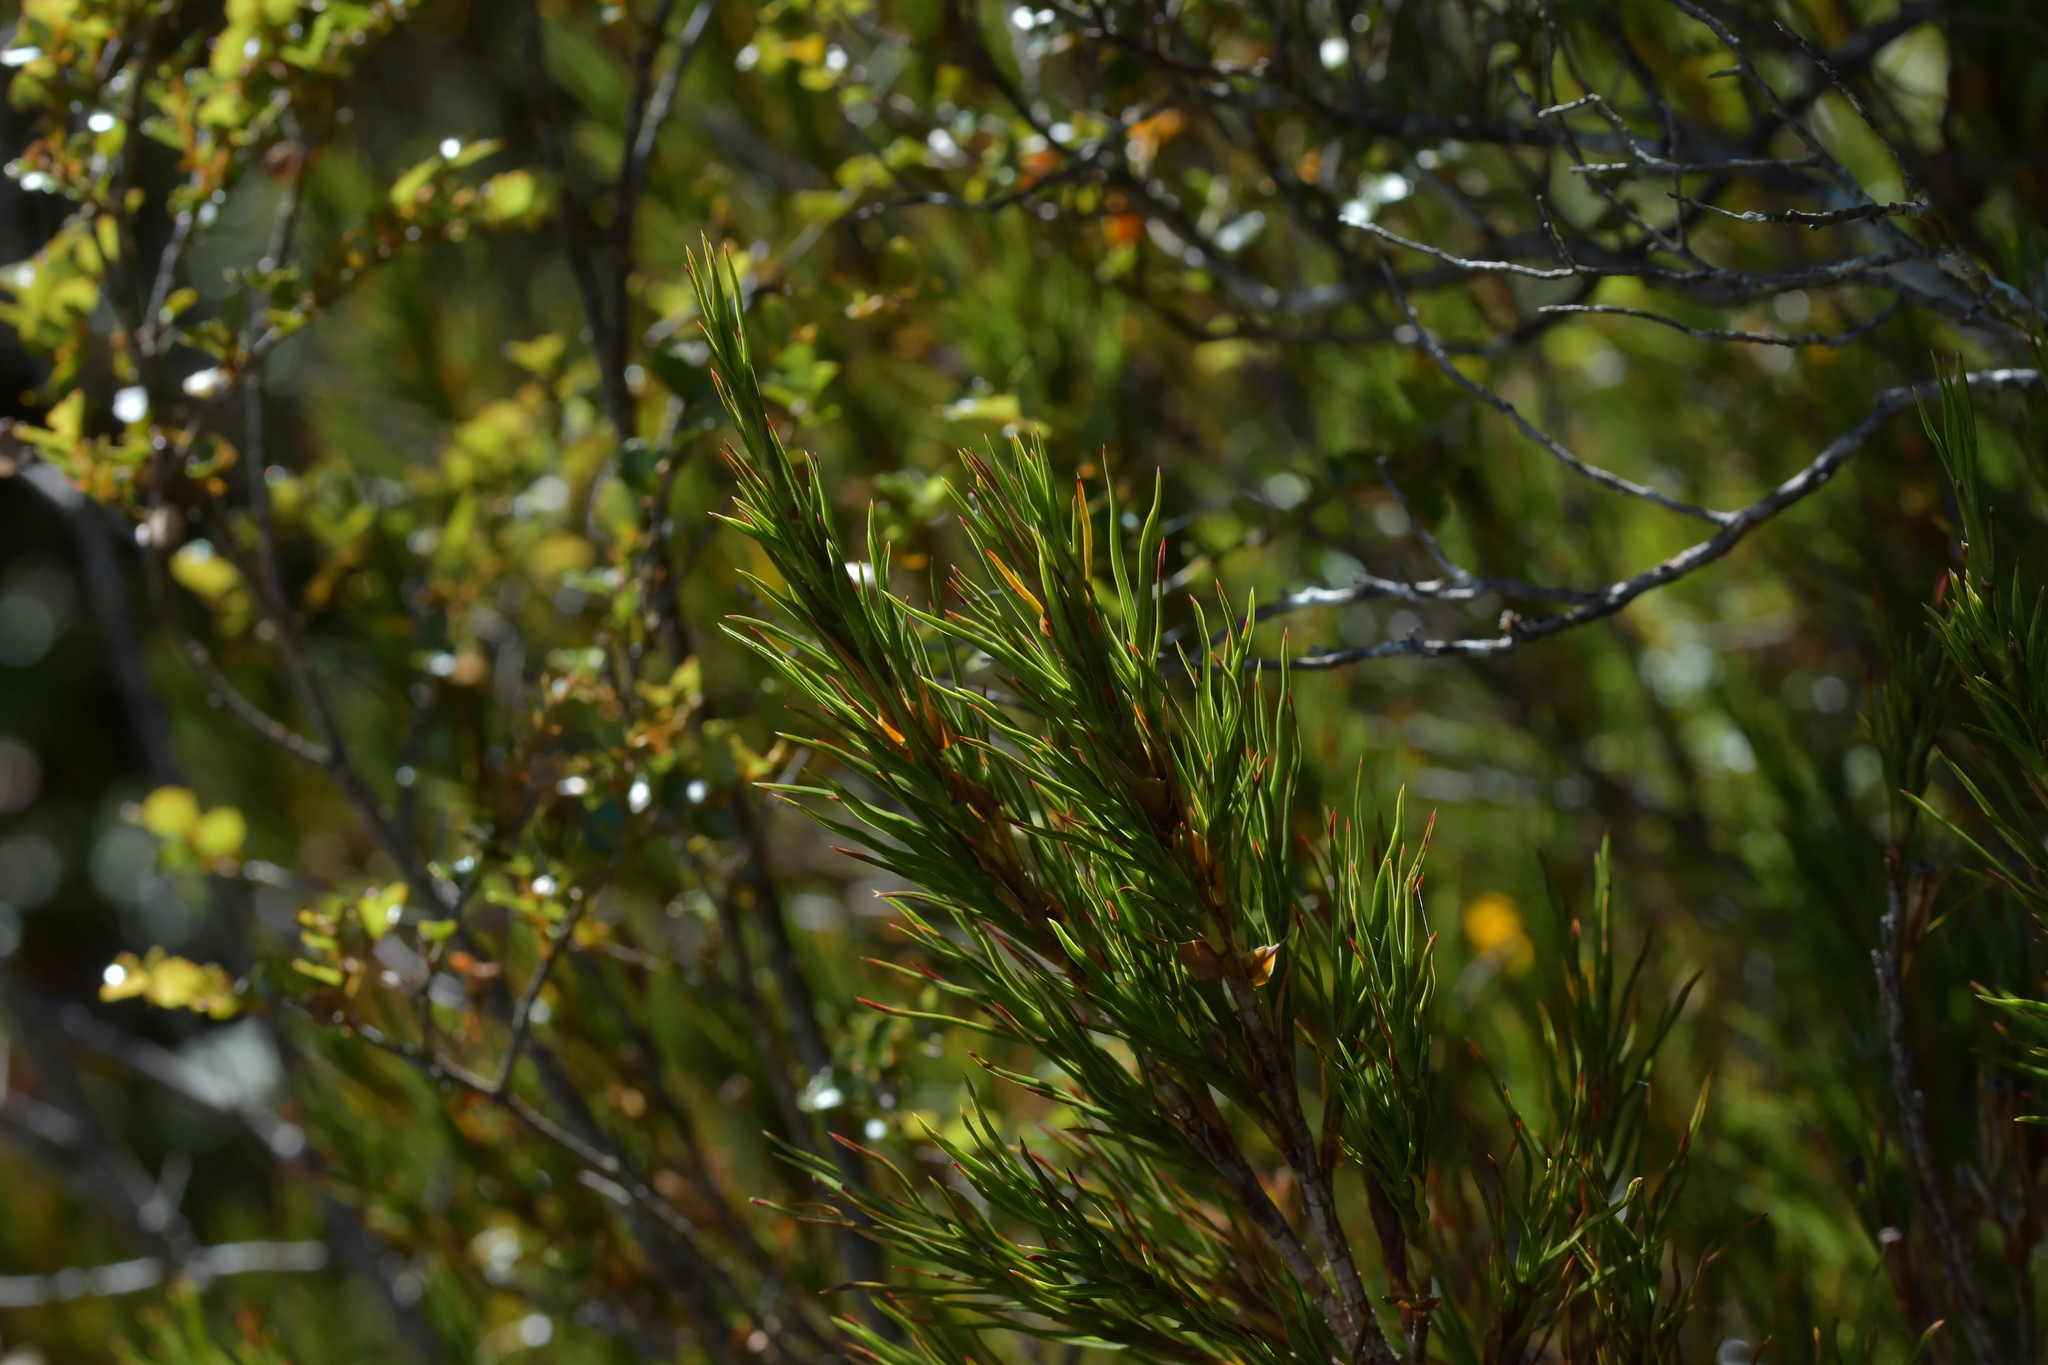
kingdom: Plantae
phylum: Tracheophyta
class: Magnoliopsida
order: Ericales
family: Ericaceae
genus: Dracophyllum
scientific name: Dracophyllum rosmarinifolium
